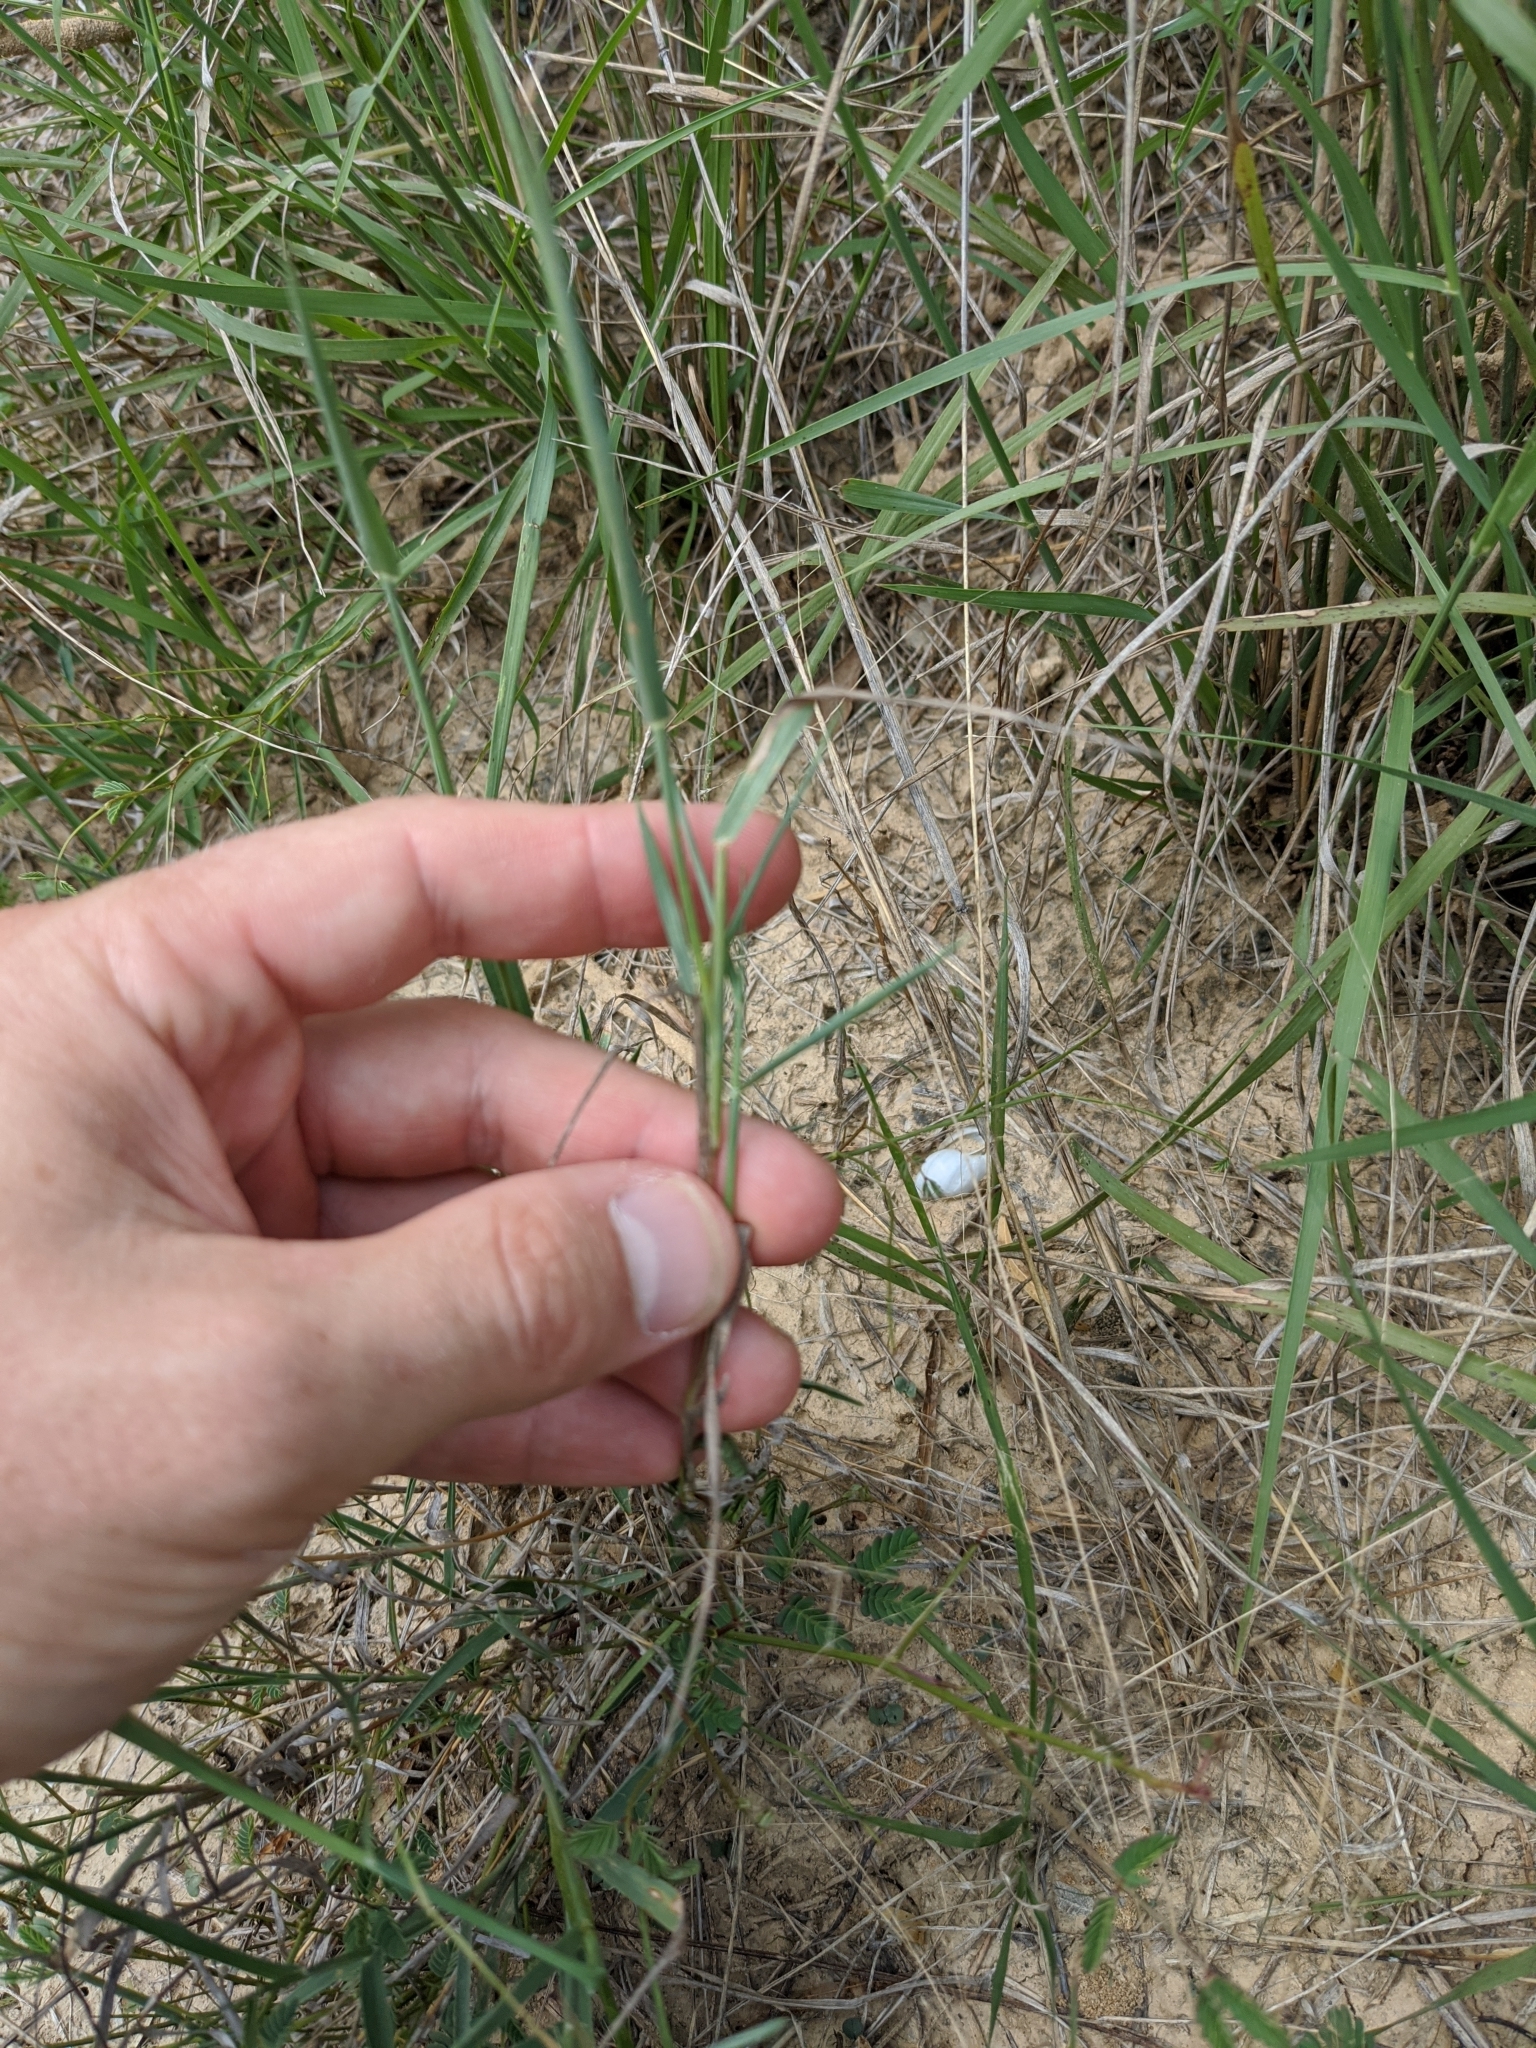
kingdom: Plantae
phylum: Tracheophyta
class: Liliopsida
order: Poales
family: Poaceae
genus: Digitaria
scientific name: Digitaria cognata
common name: Fall witchgrass
